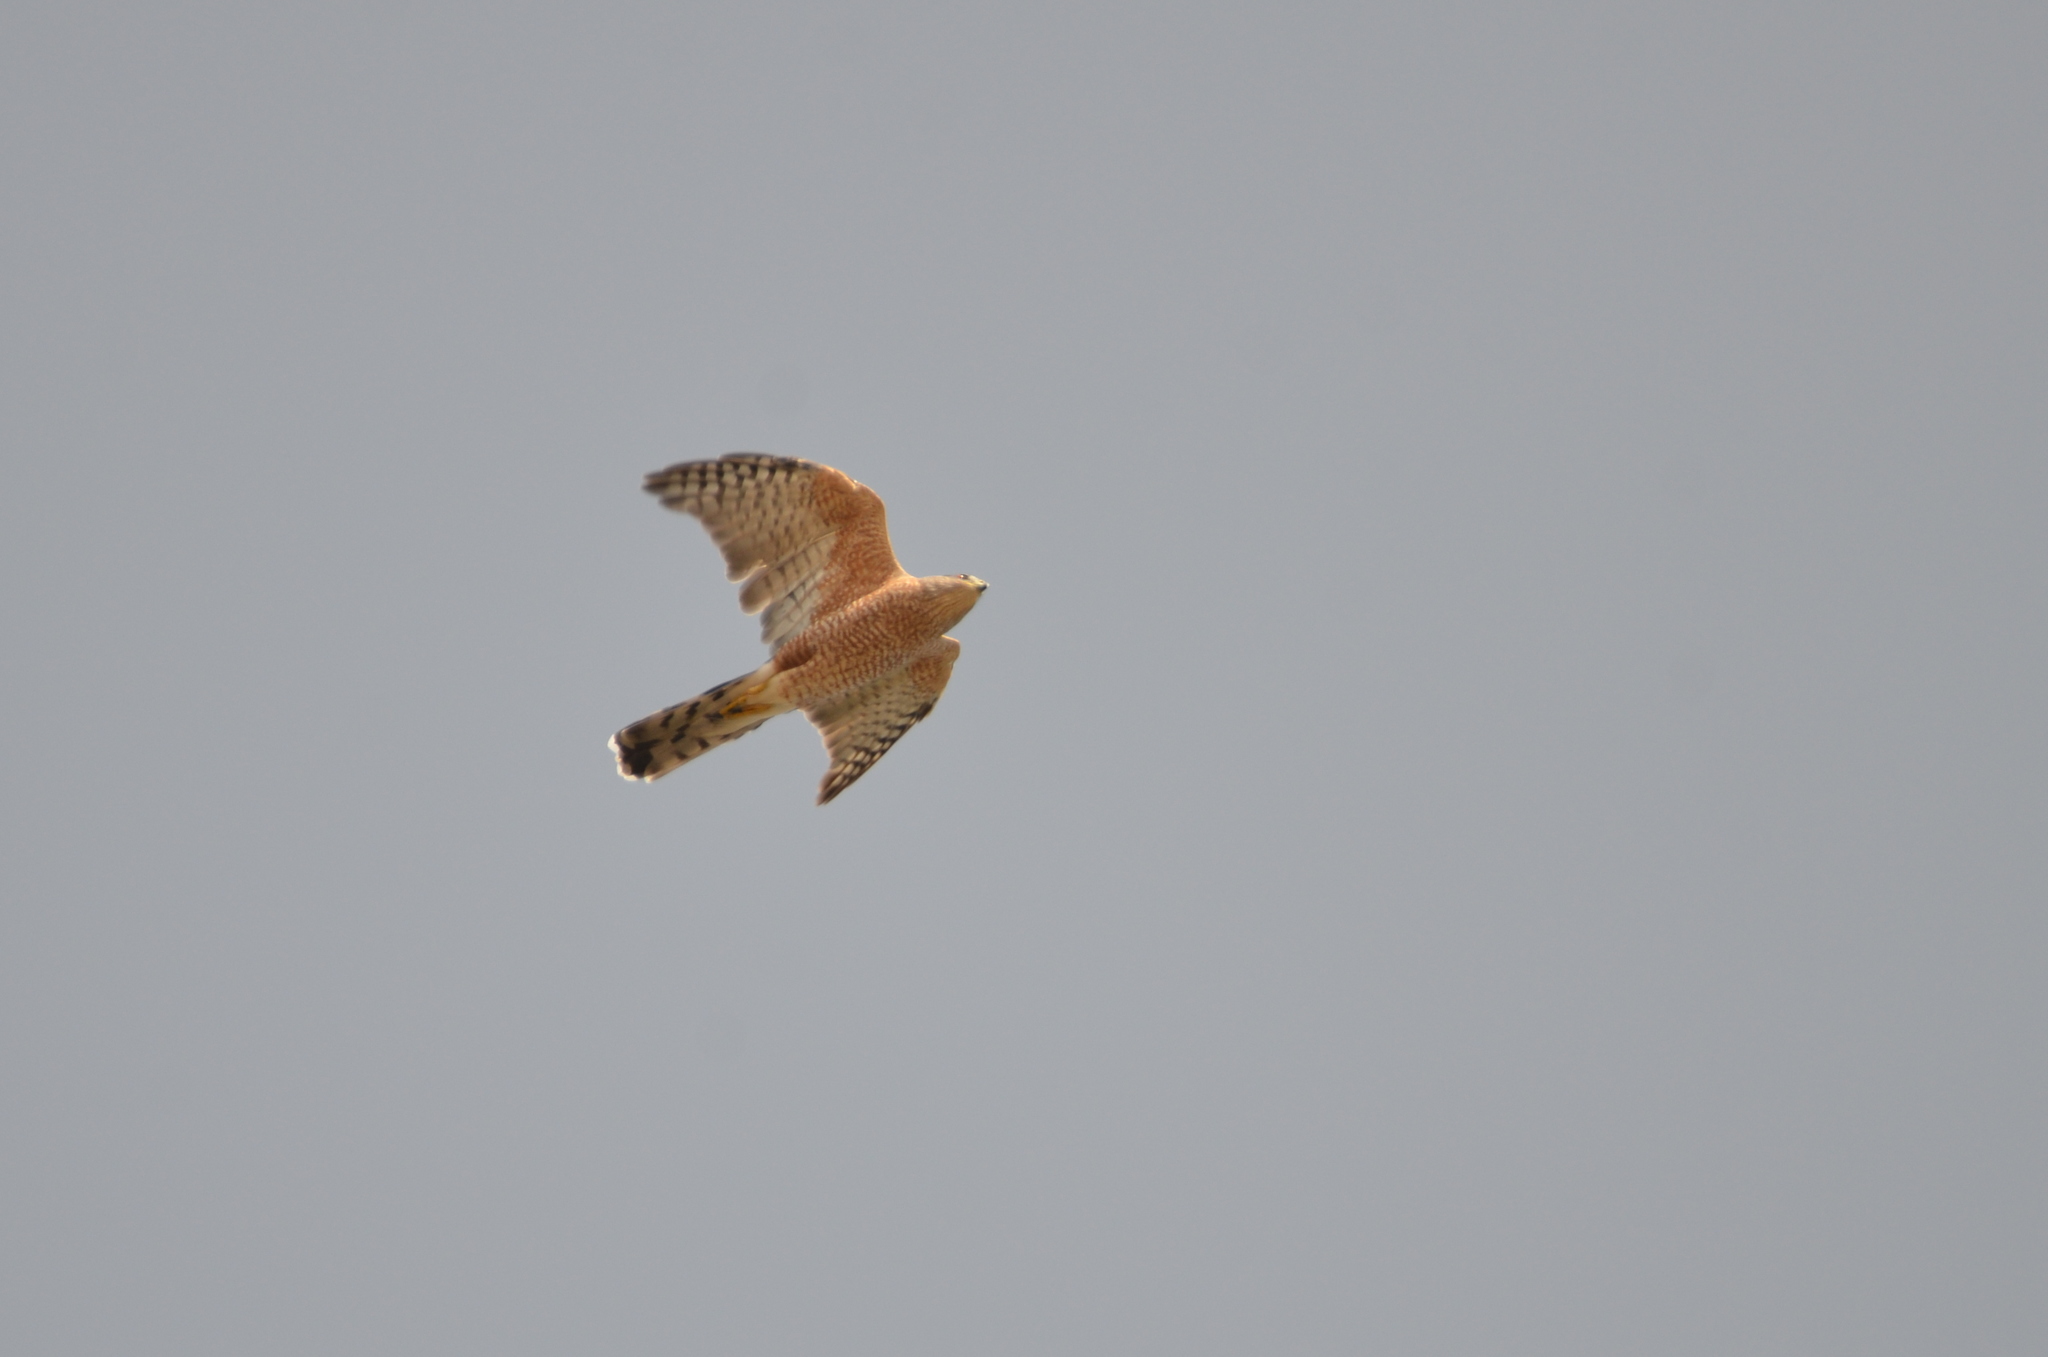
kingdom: Animalia
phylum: Chordata
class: Aves
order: Accipitriformes
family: Accipitridae
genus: Accipiter
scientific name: Accipiter cooperii
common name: Cooper's hawk
